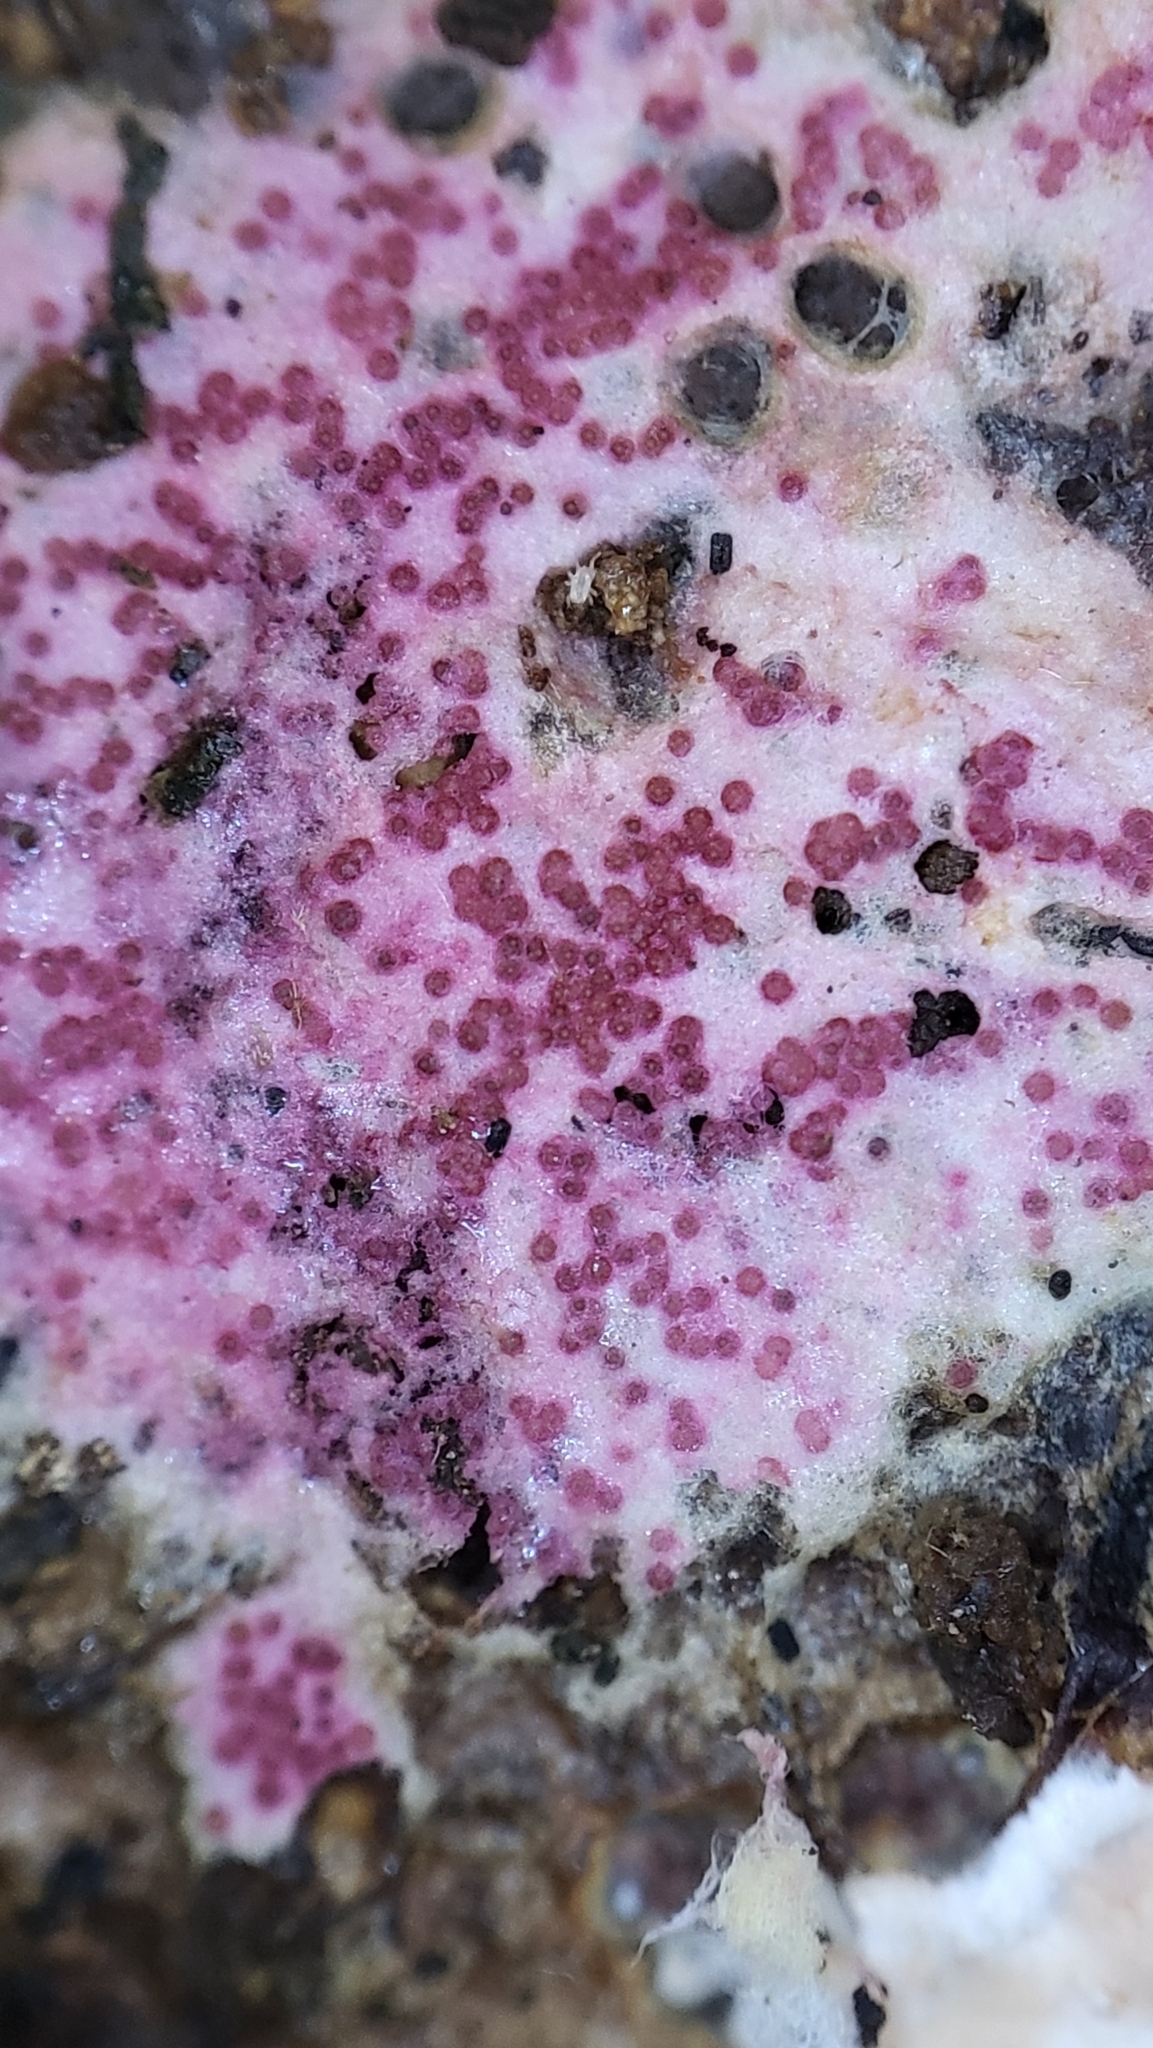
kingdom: Fungi
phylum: Ascomycota
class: Sordariomycetes
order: Hypocreales
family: Hypocreaceae
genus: Hypomyces
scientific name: Hypomyces rosellus
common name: Pink polypore mould
